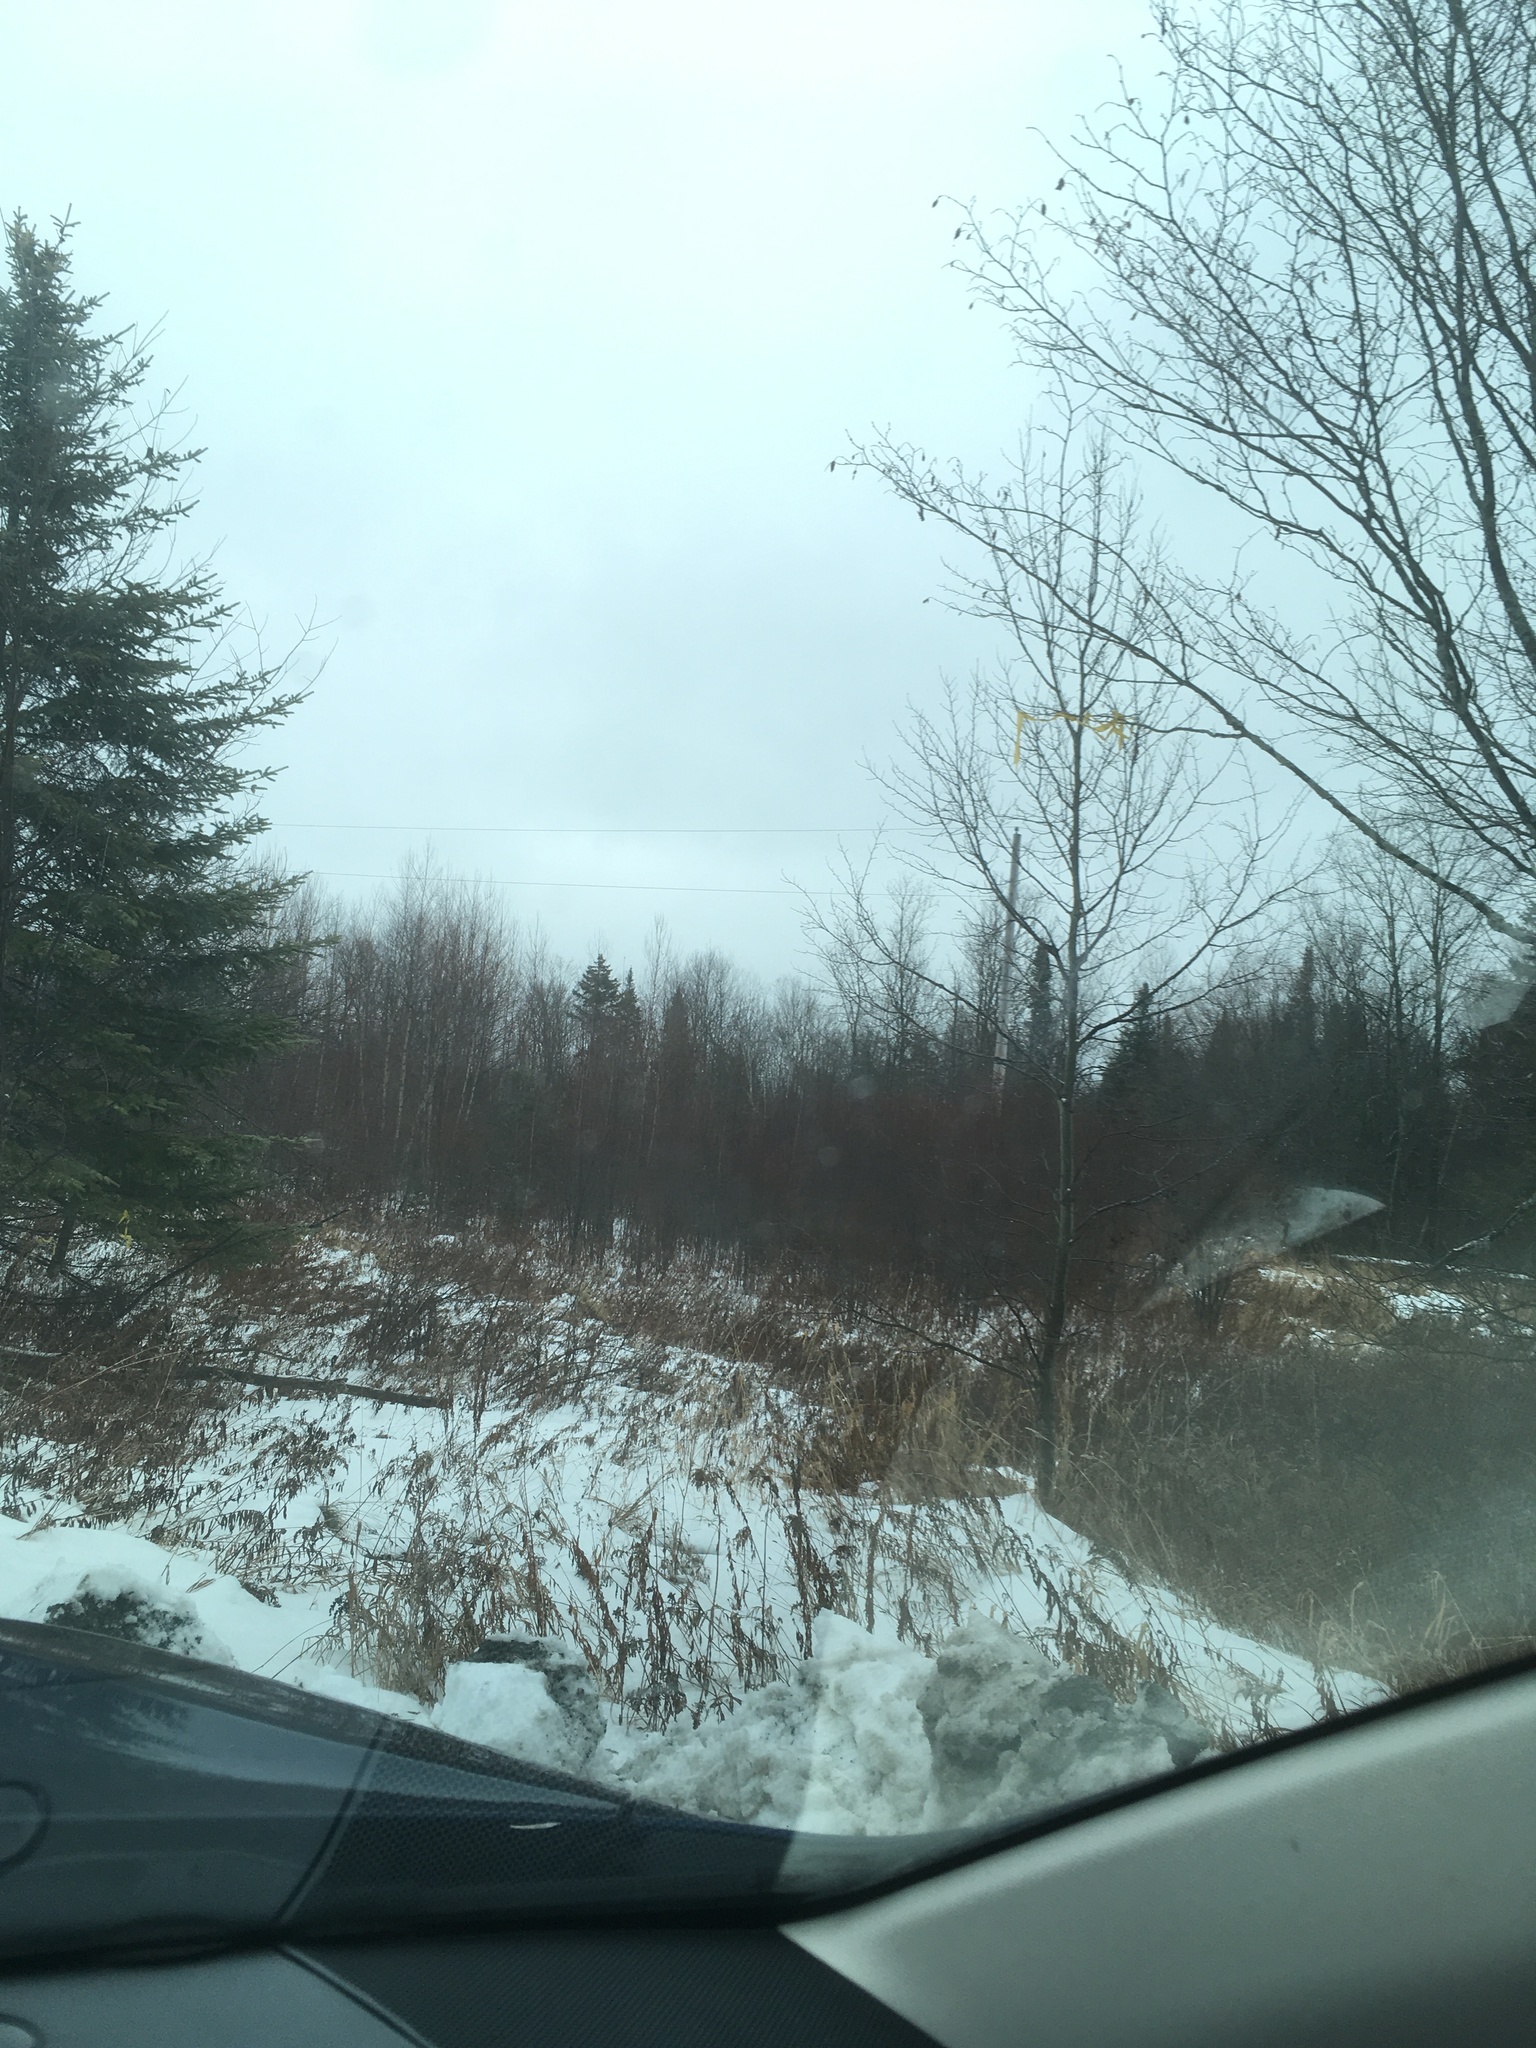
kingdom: Plantae
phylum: Tracheophyta
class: Magnoliopsida
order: Malpighiales
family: Salicaceae
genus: Populus
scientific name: Populus tremuloides
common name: Quaking aspen
